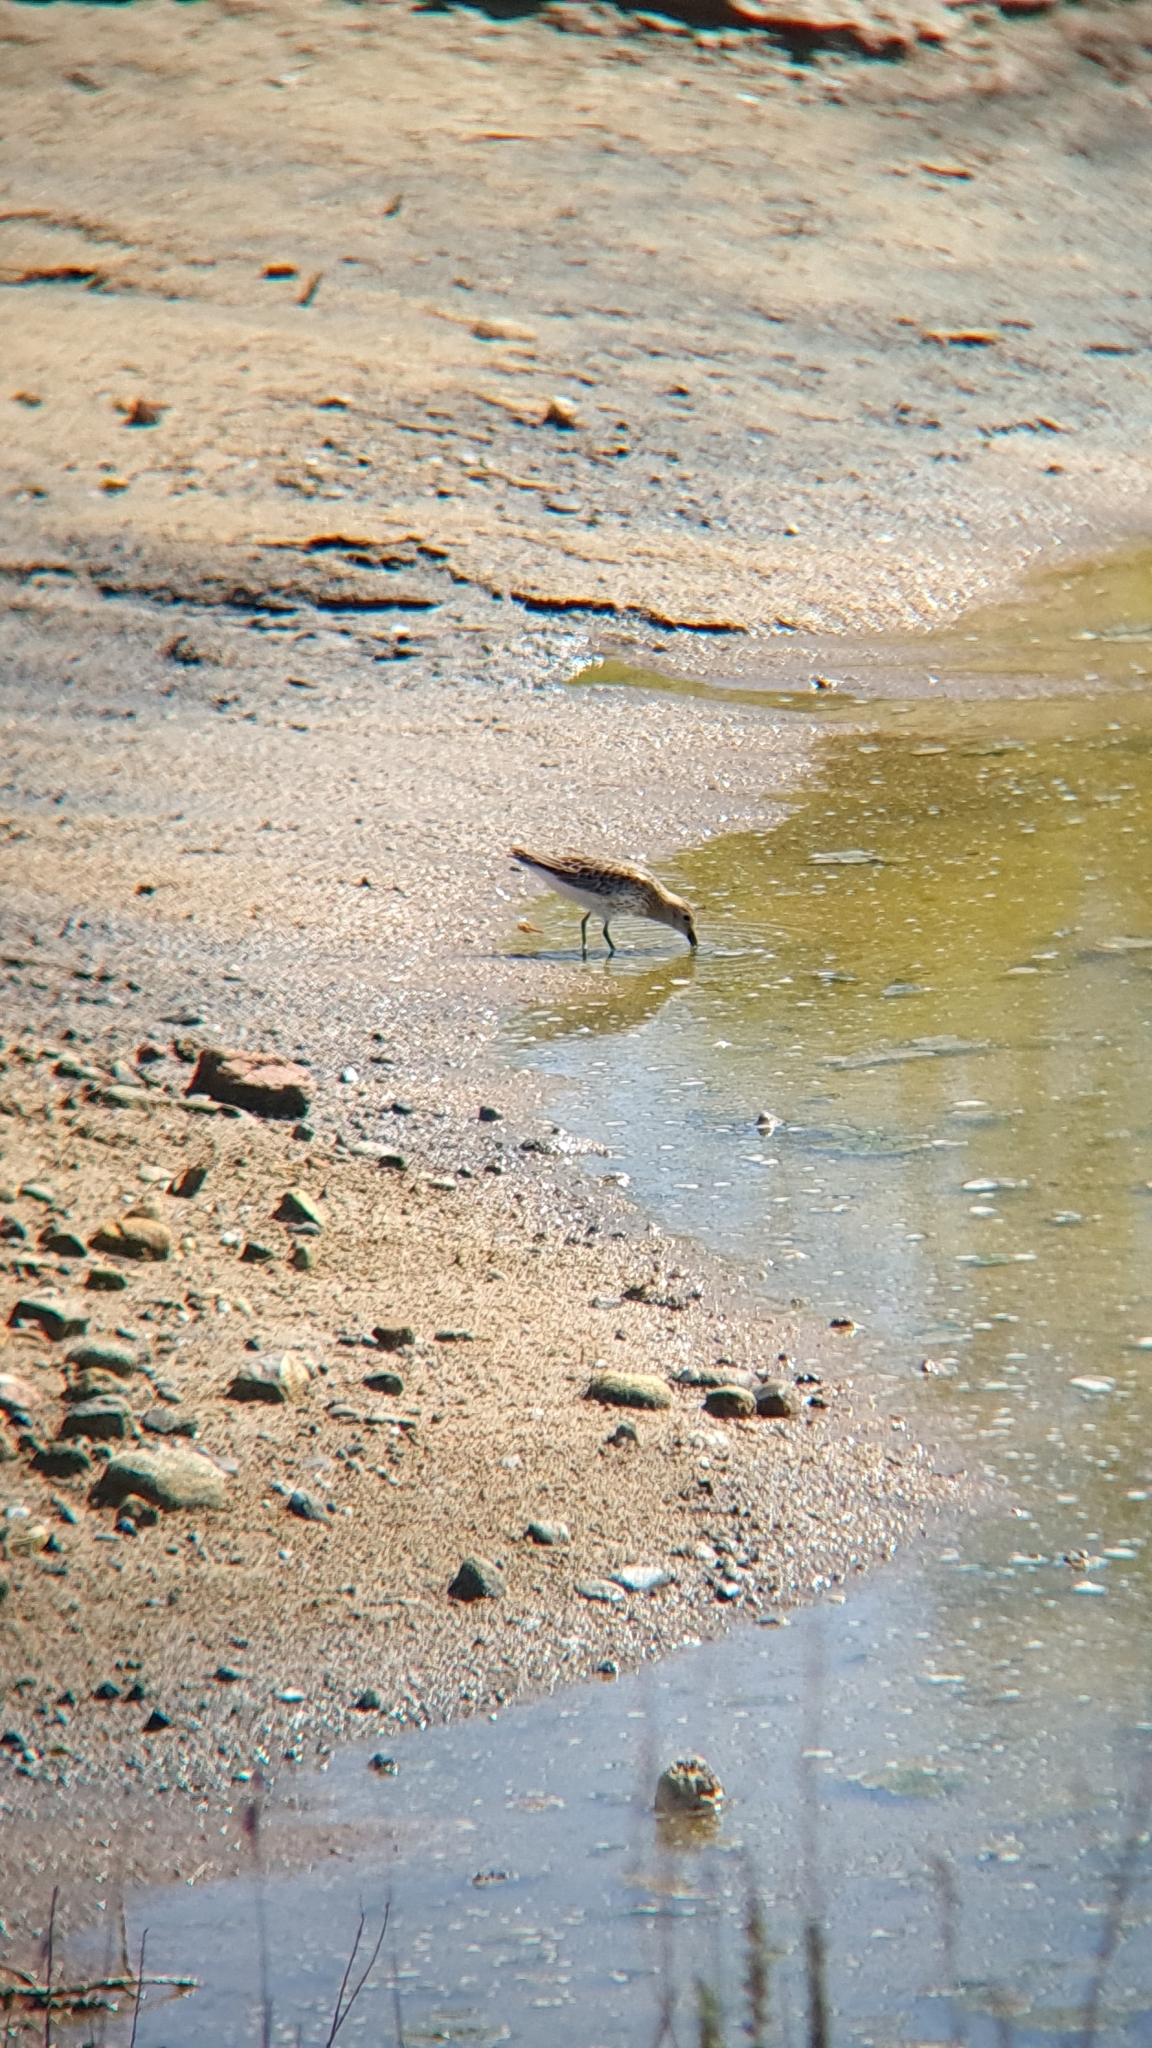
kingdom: Animalia
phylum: Chordata
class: Aves
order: Charadriiformes
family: Scolopacidae
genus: Calidris
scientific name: Calidris alpina
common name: Dunlin
